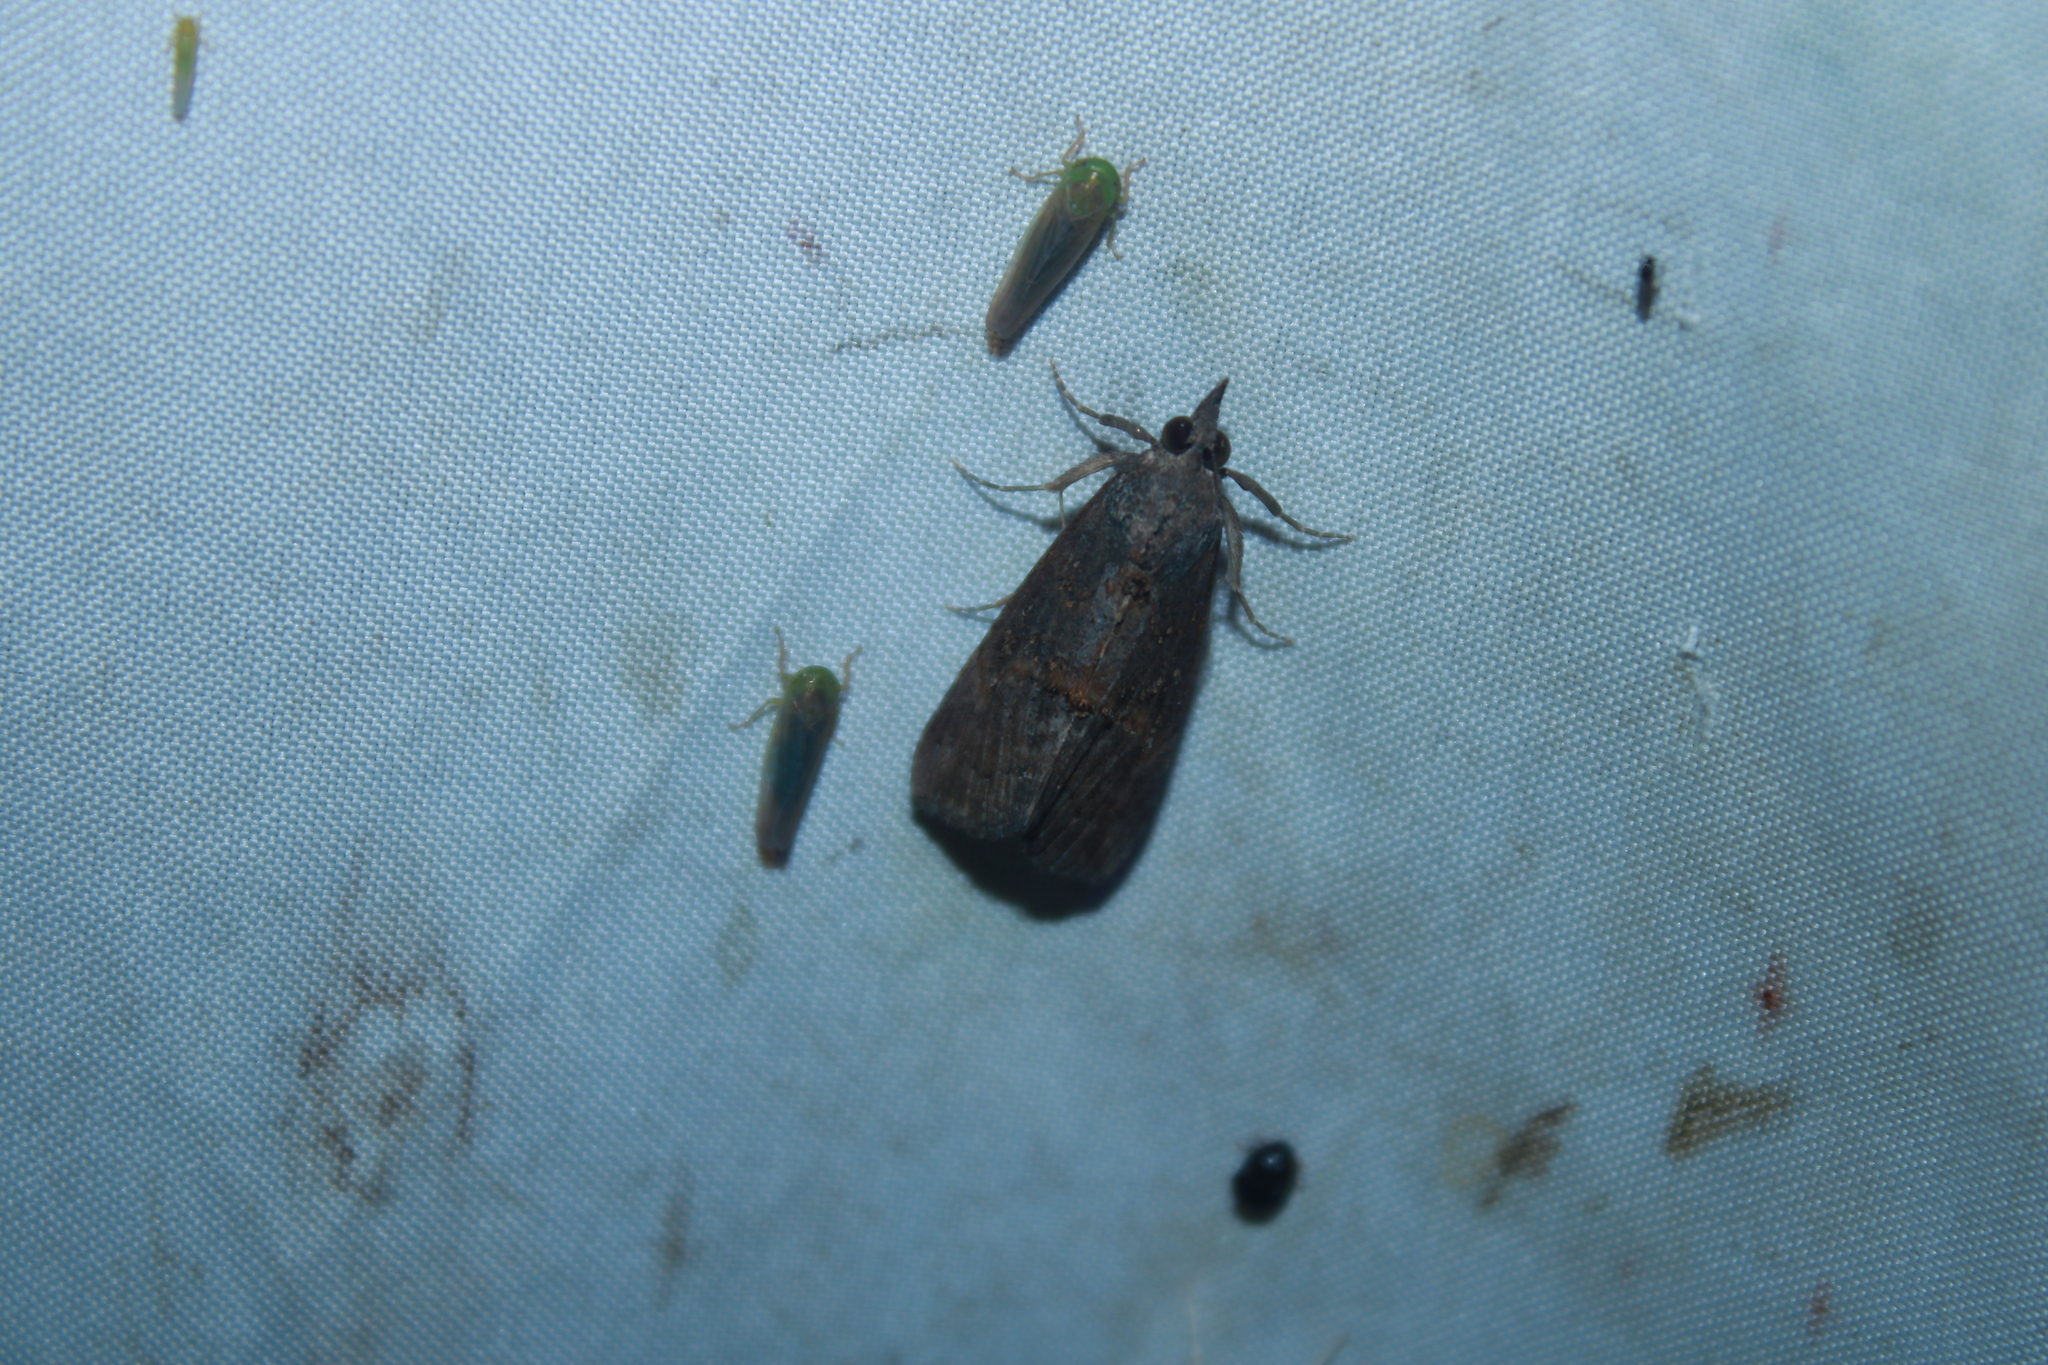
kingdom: Animalia
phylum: Arthropoda
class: Insecta
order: Lepidoptera
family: Erebidae
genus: Hypena
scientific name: Hypena scabra
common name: Green cloverworm
